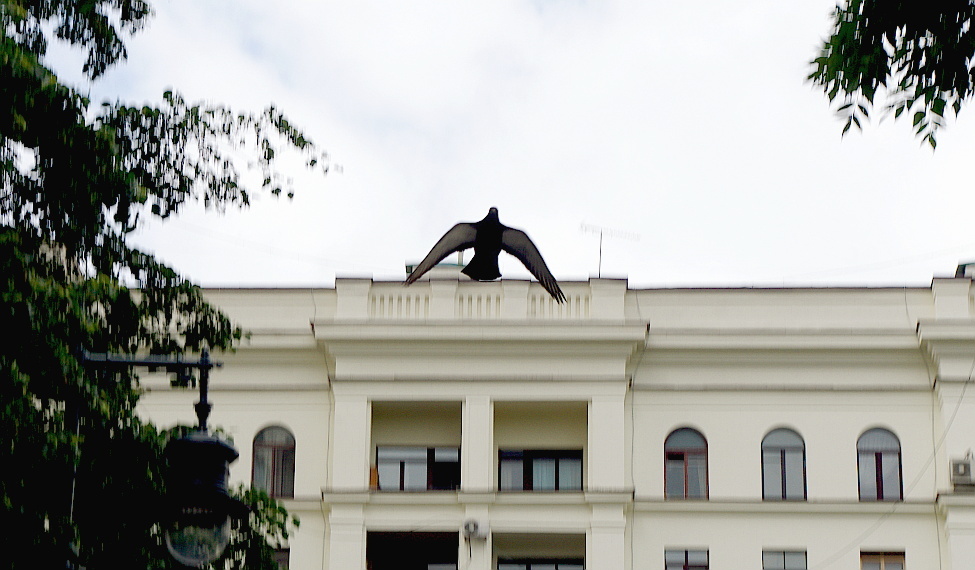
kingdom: Animalia
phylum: Chordata
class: Aves
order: Columbiformes
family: Columbidae
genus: Columba
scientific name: Columba livia
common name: Rock pigeon
